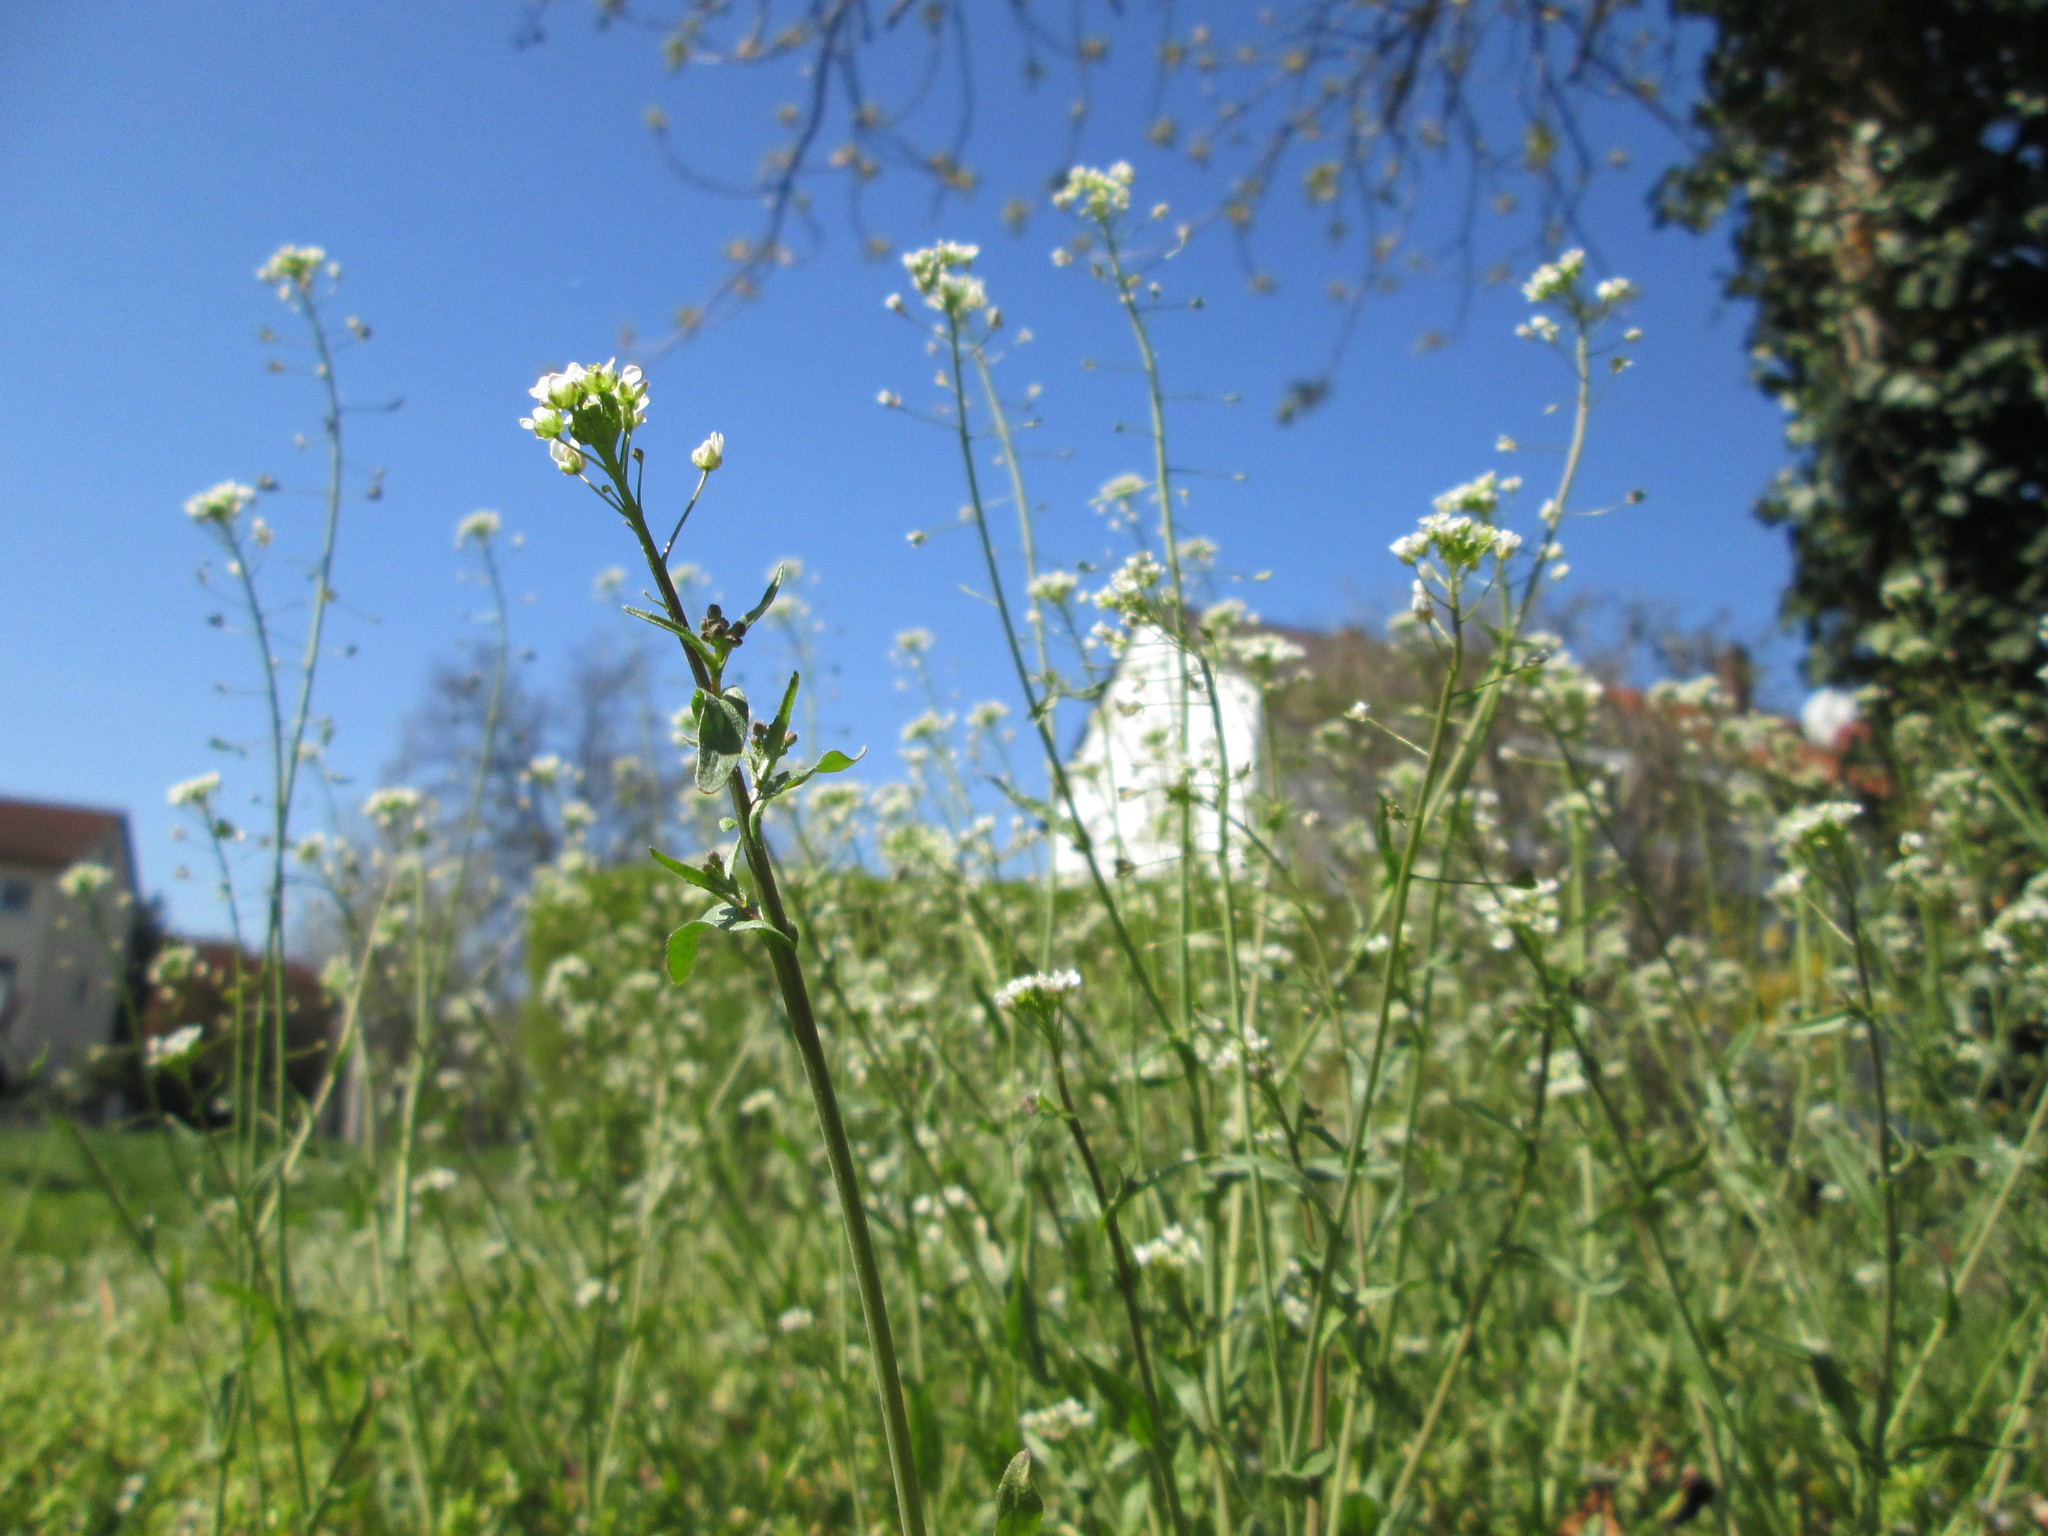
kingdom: Plantae
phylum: Tracheophyta
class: Magnoliopsida
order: Brassicales
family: Brassicaceae
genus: Capsella
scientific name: Capsella bursa-pastoris
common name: Shepherd's purse
